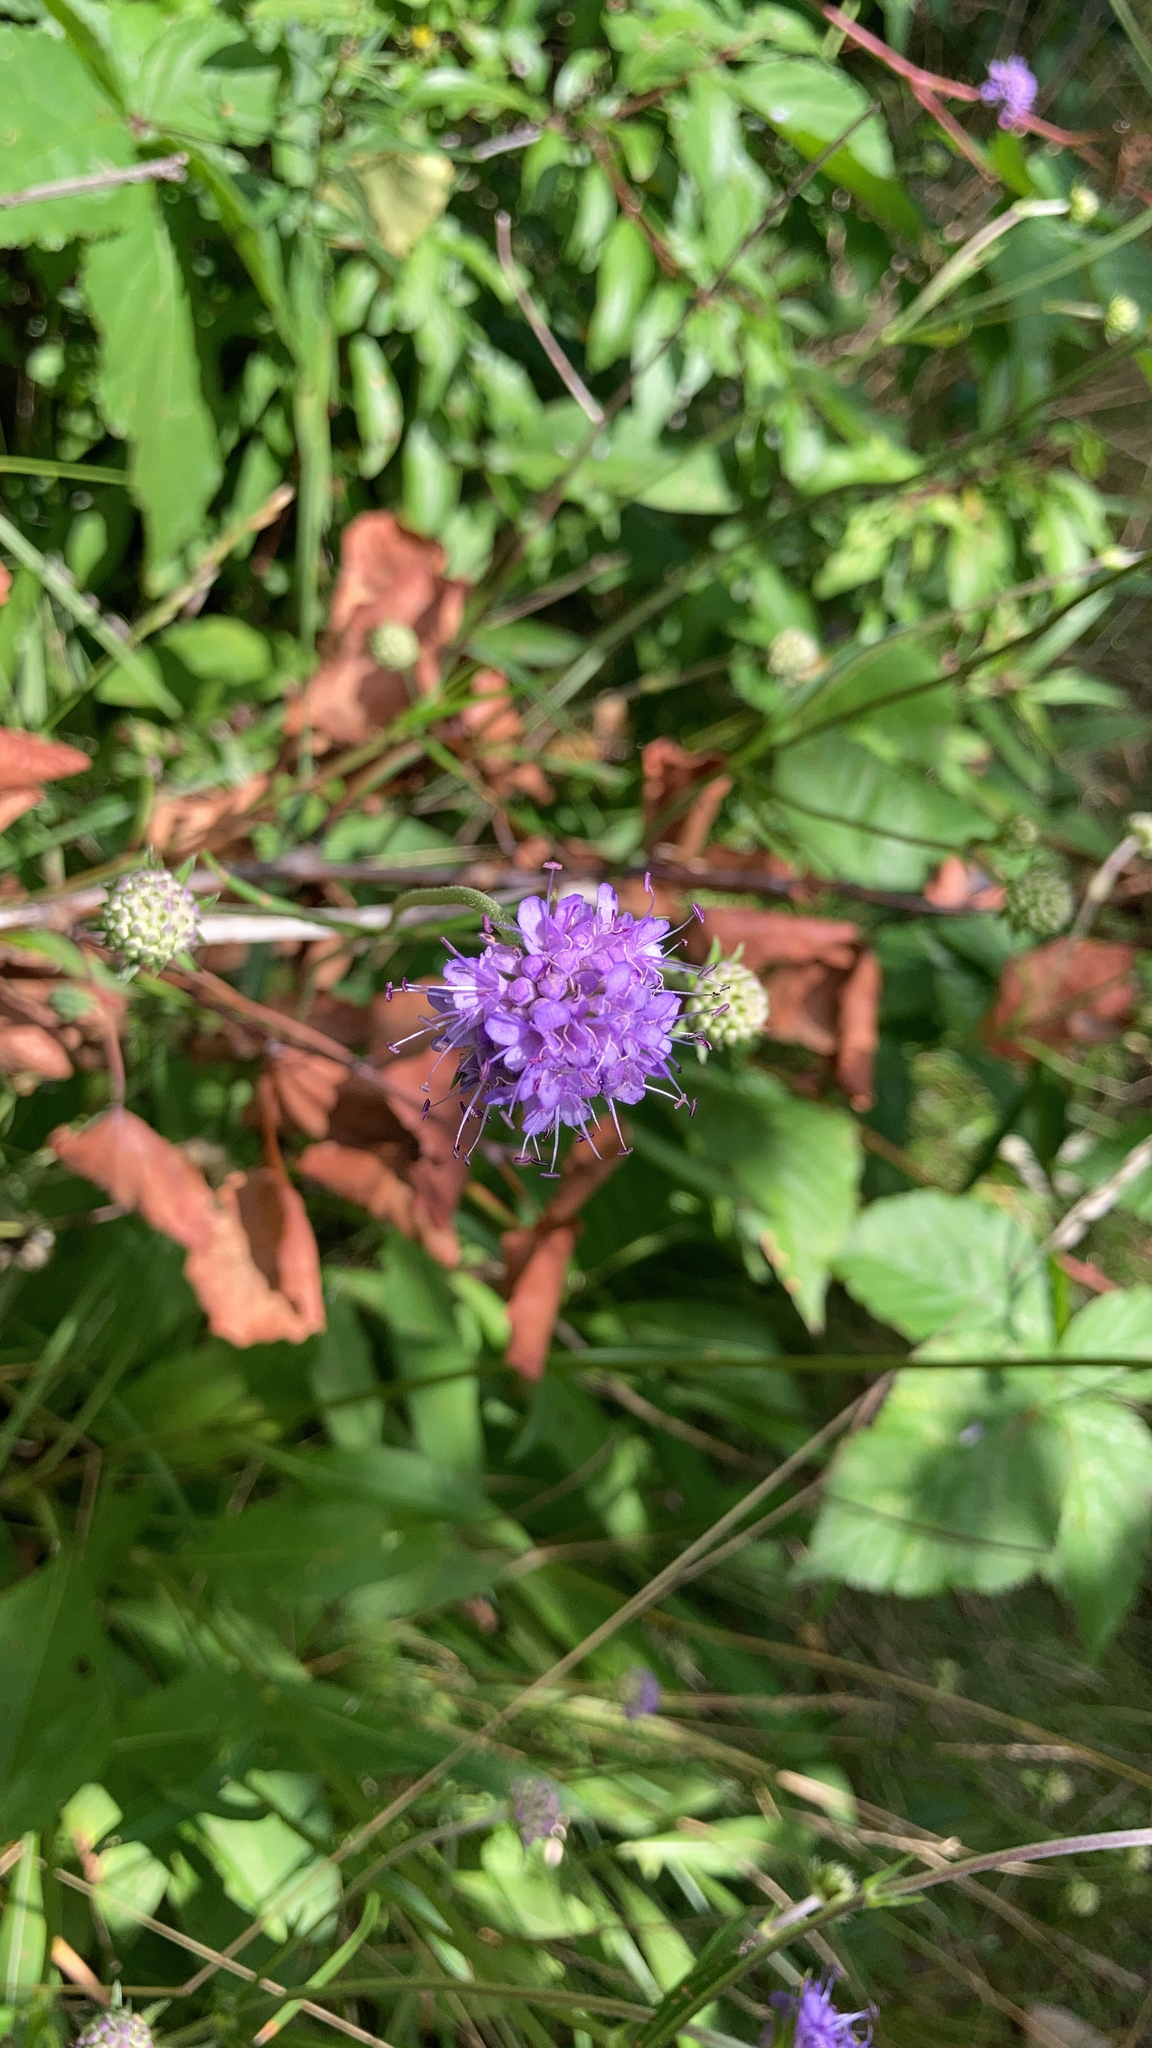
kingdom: Plantae
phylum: Tracheophyta
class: Magnoliopsida
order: Dipsacales
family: Caprifoliaceae
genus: Succisa
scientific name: Succisa pratensis
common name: Devil's-bit
